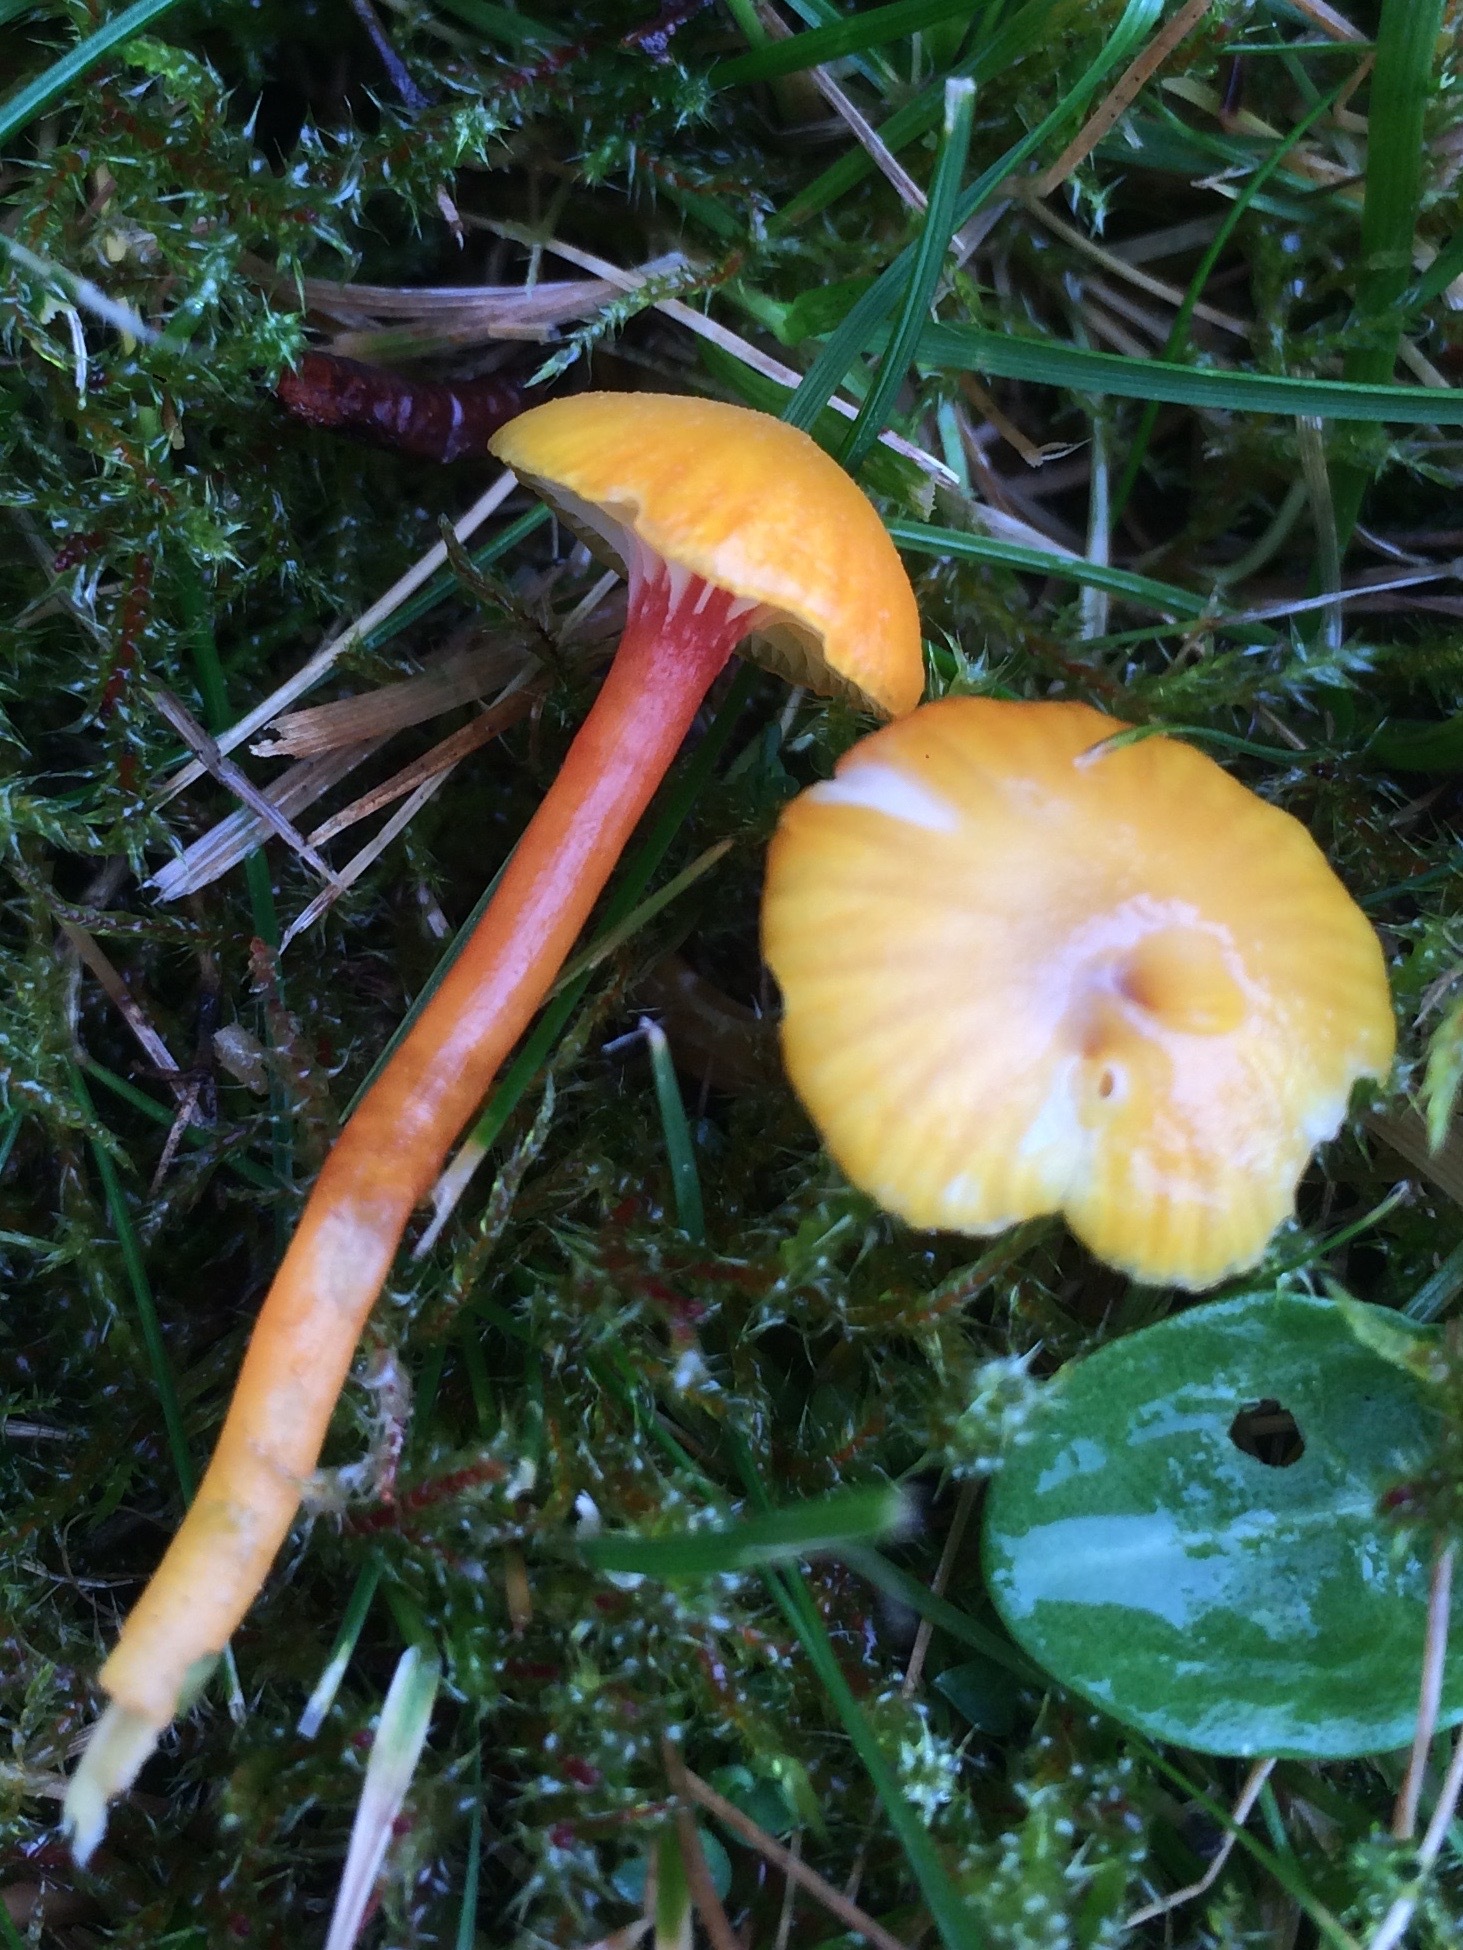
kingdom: Fungi
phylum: Basidiomycota
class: Agaricomycetes
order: Agaricales
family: Hygrophoraceae
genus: Hygrocybe
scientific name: Hygrocybe insipida
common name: Spangle waxcap
